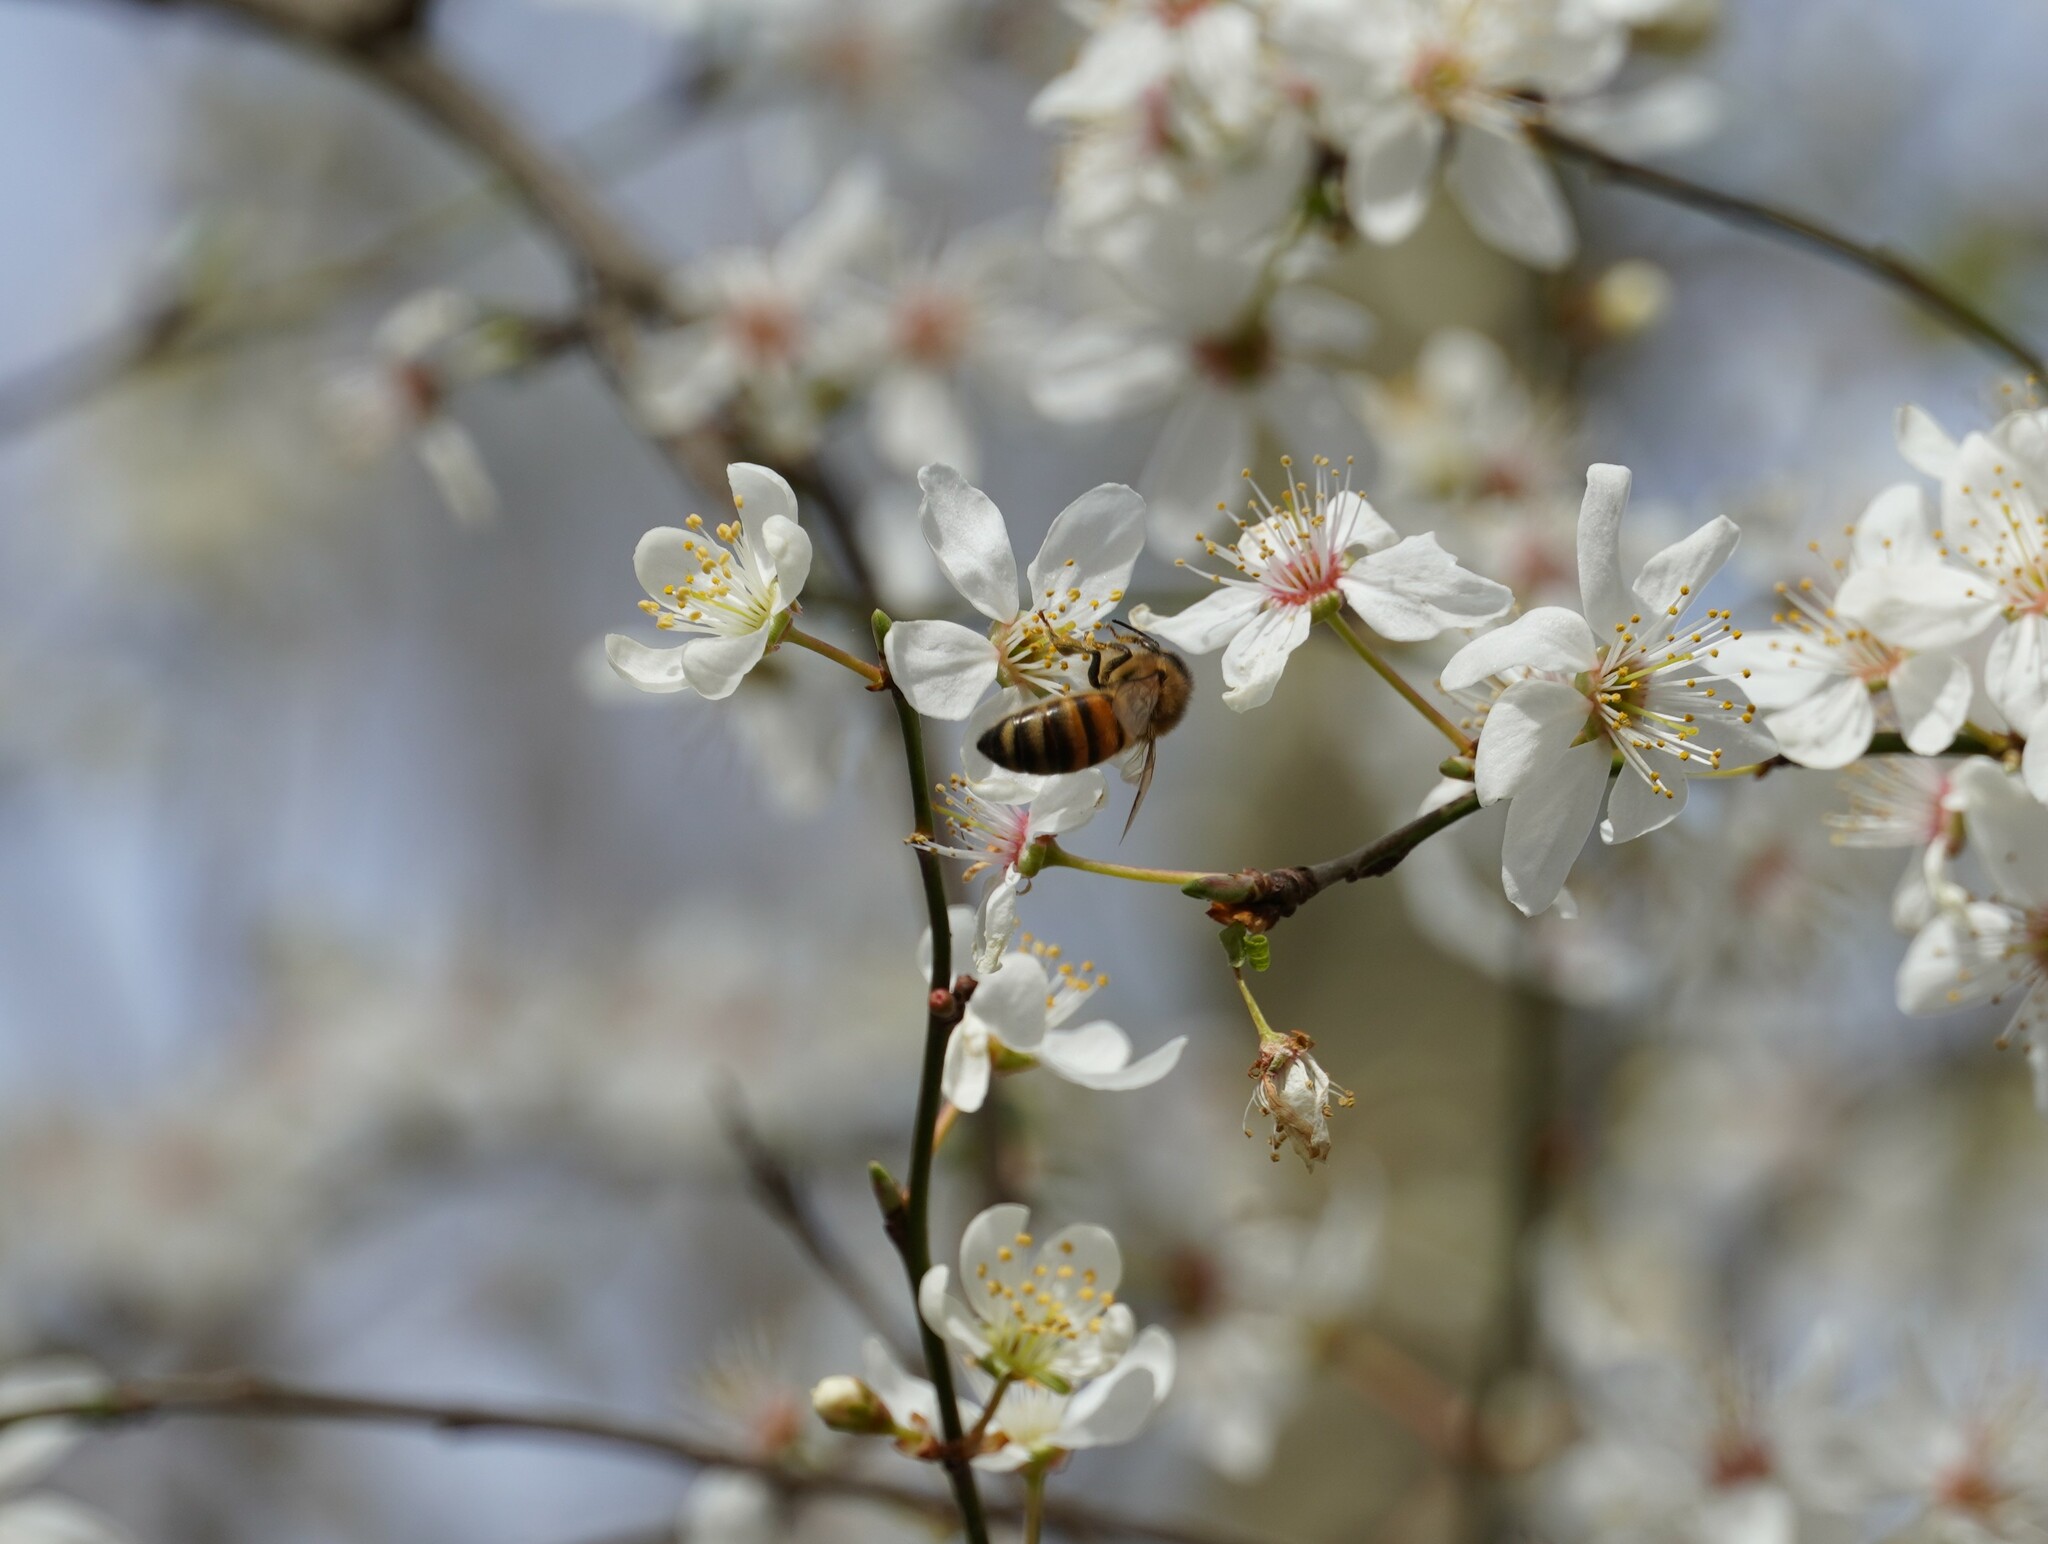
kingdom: Animalia
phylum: Arthropoda
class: Insecta
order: Hymenoptera
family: Apidae
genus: Apis
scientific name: Apis mellifera
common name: Honey bee
